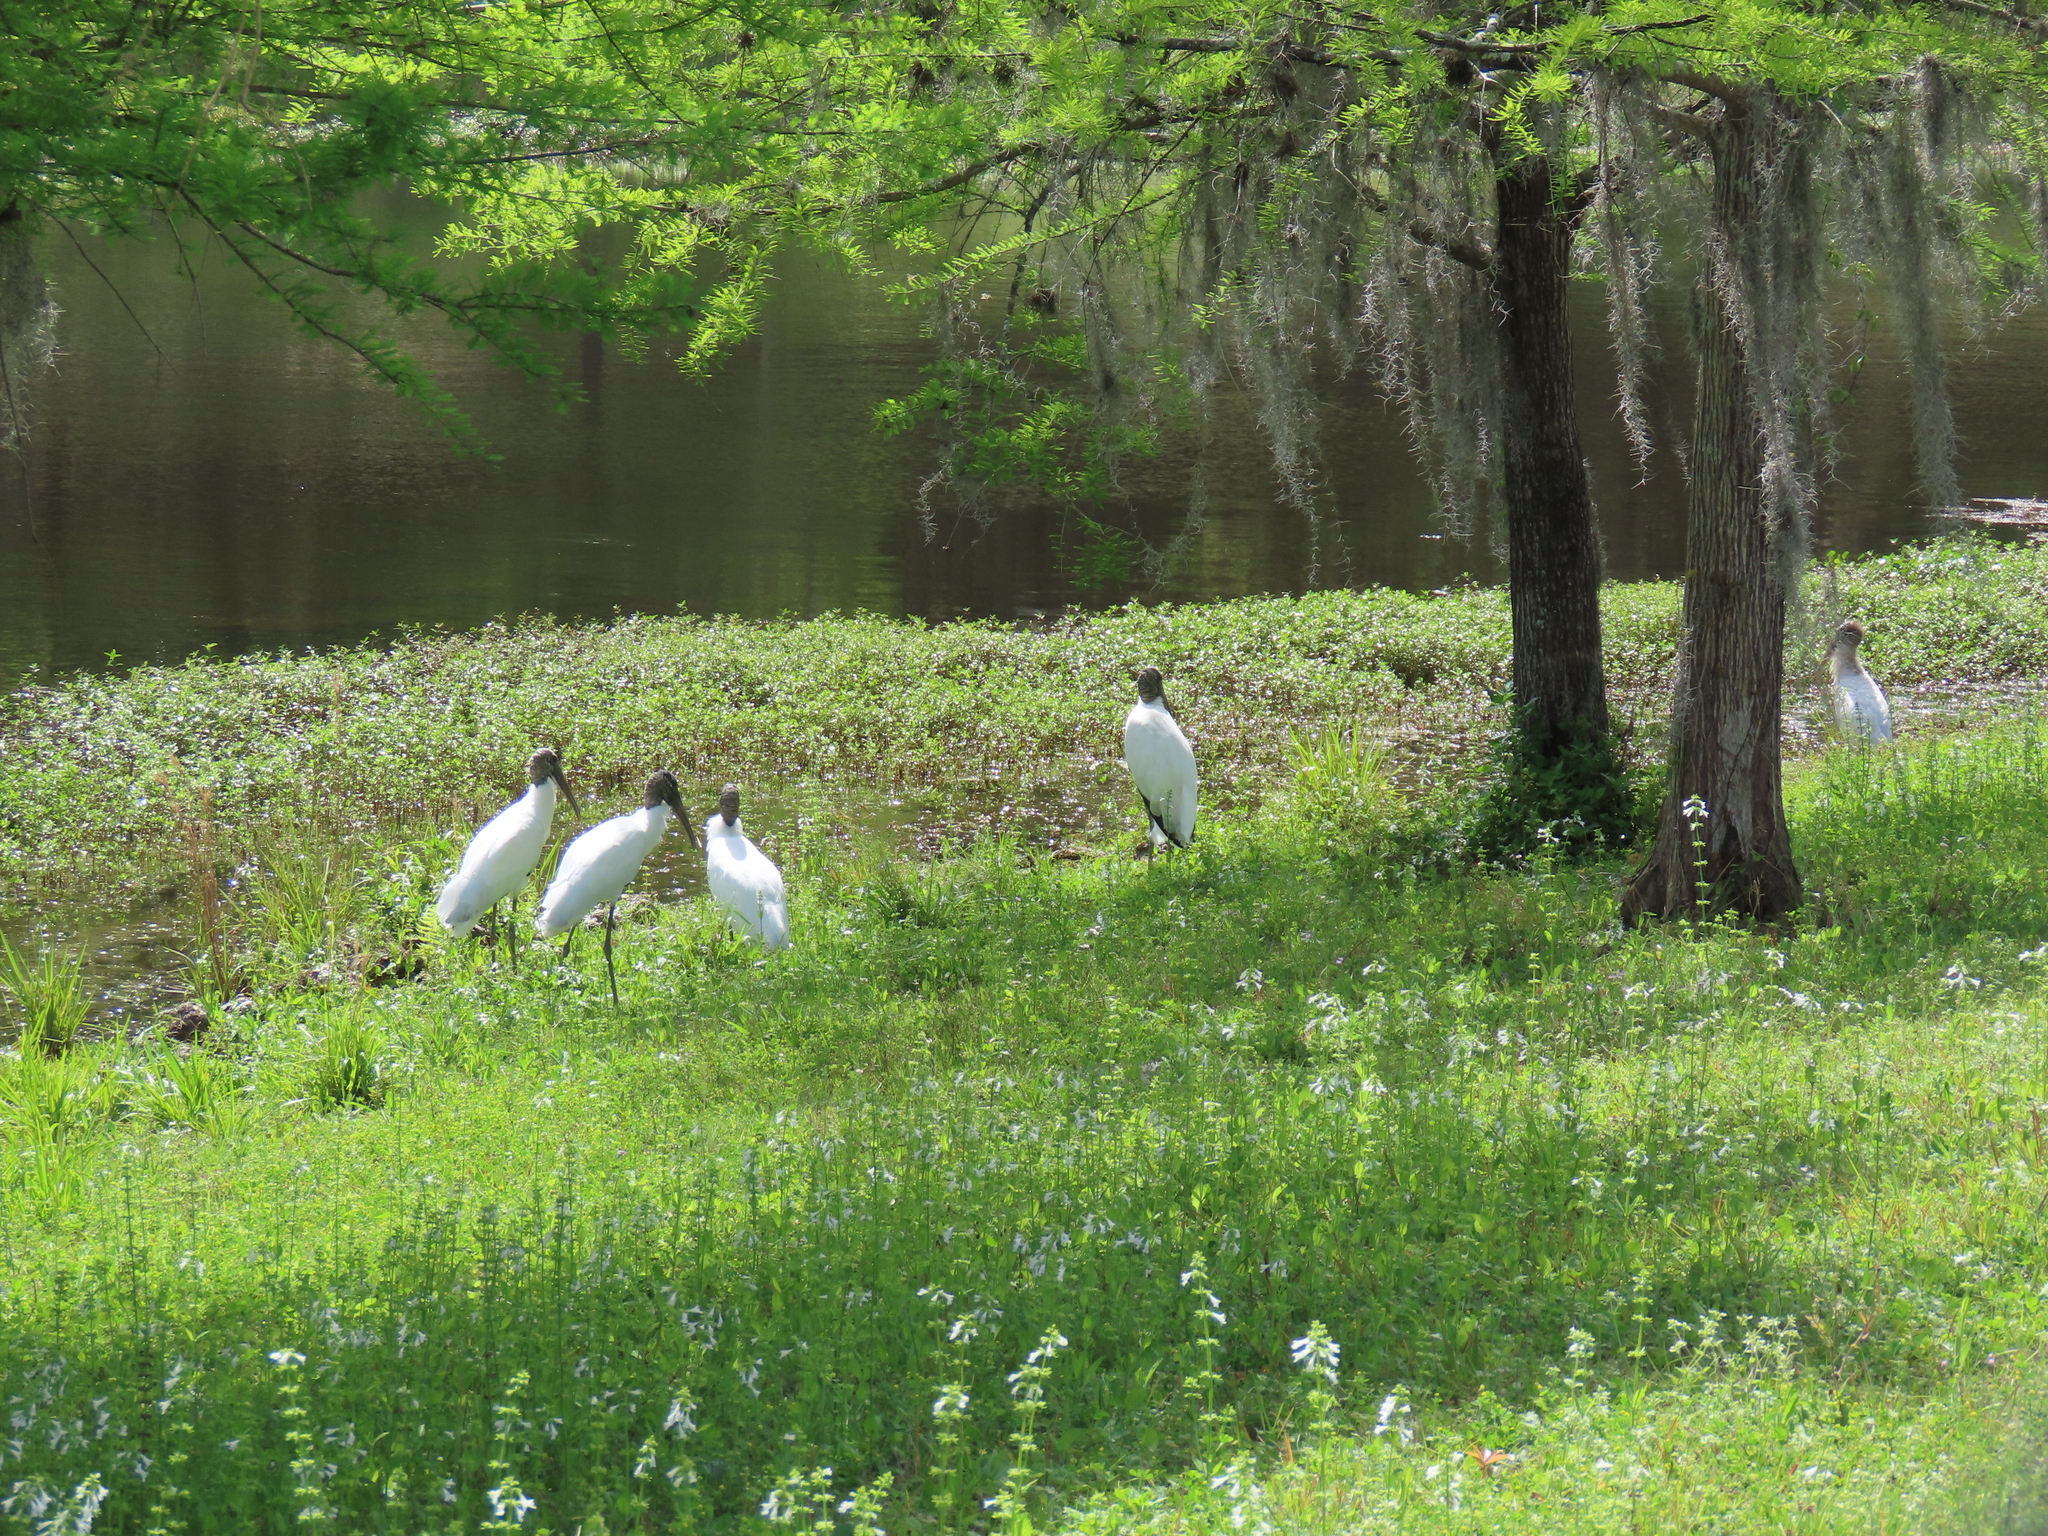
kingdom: Animalia
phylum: Chordata
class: Aves
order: Ciconiiformes
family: Ciconiidae
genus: Mycteria
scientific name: Mycteria americana
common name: Wood stork
